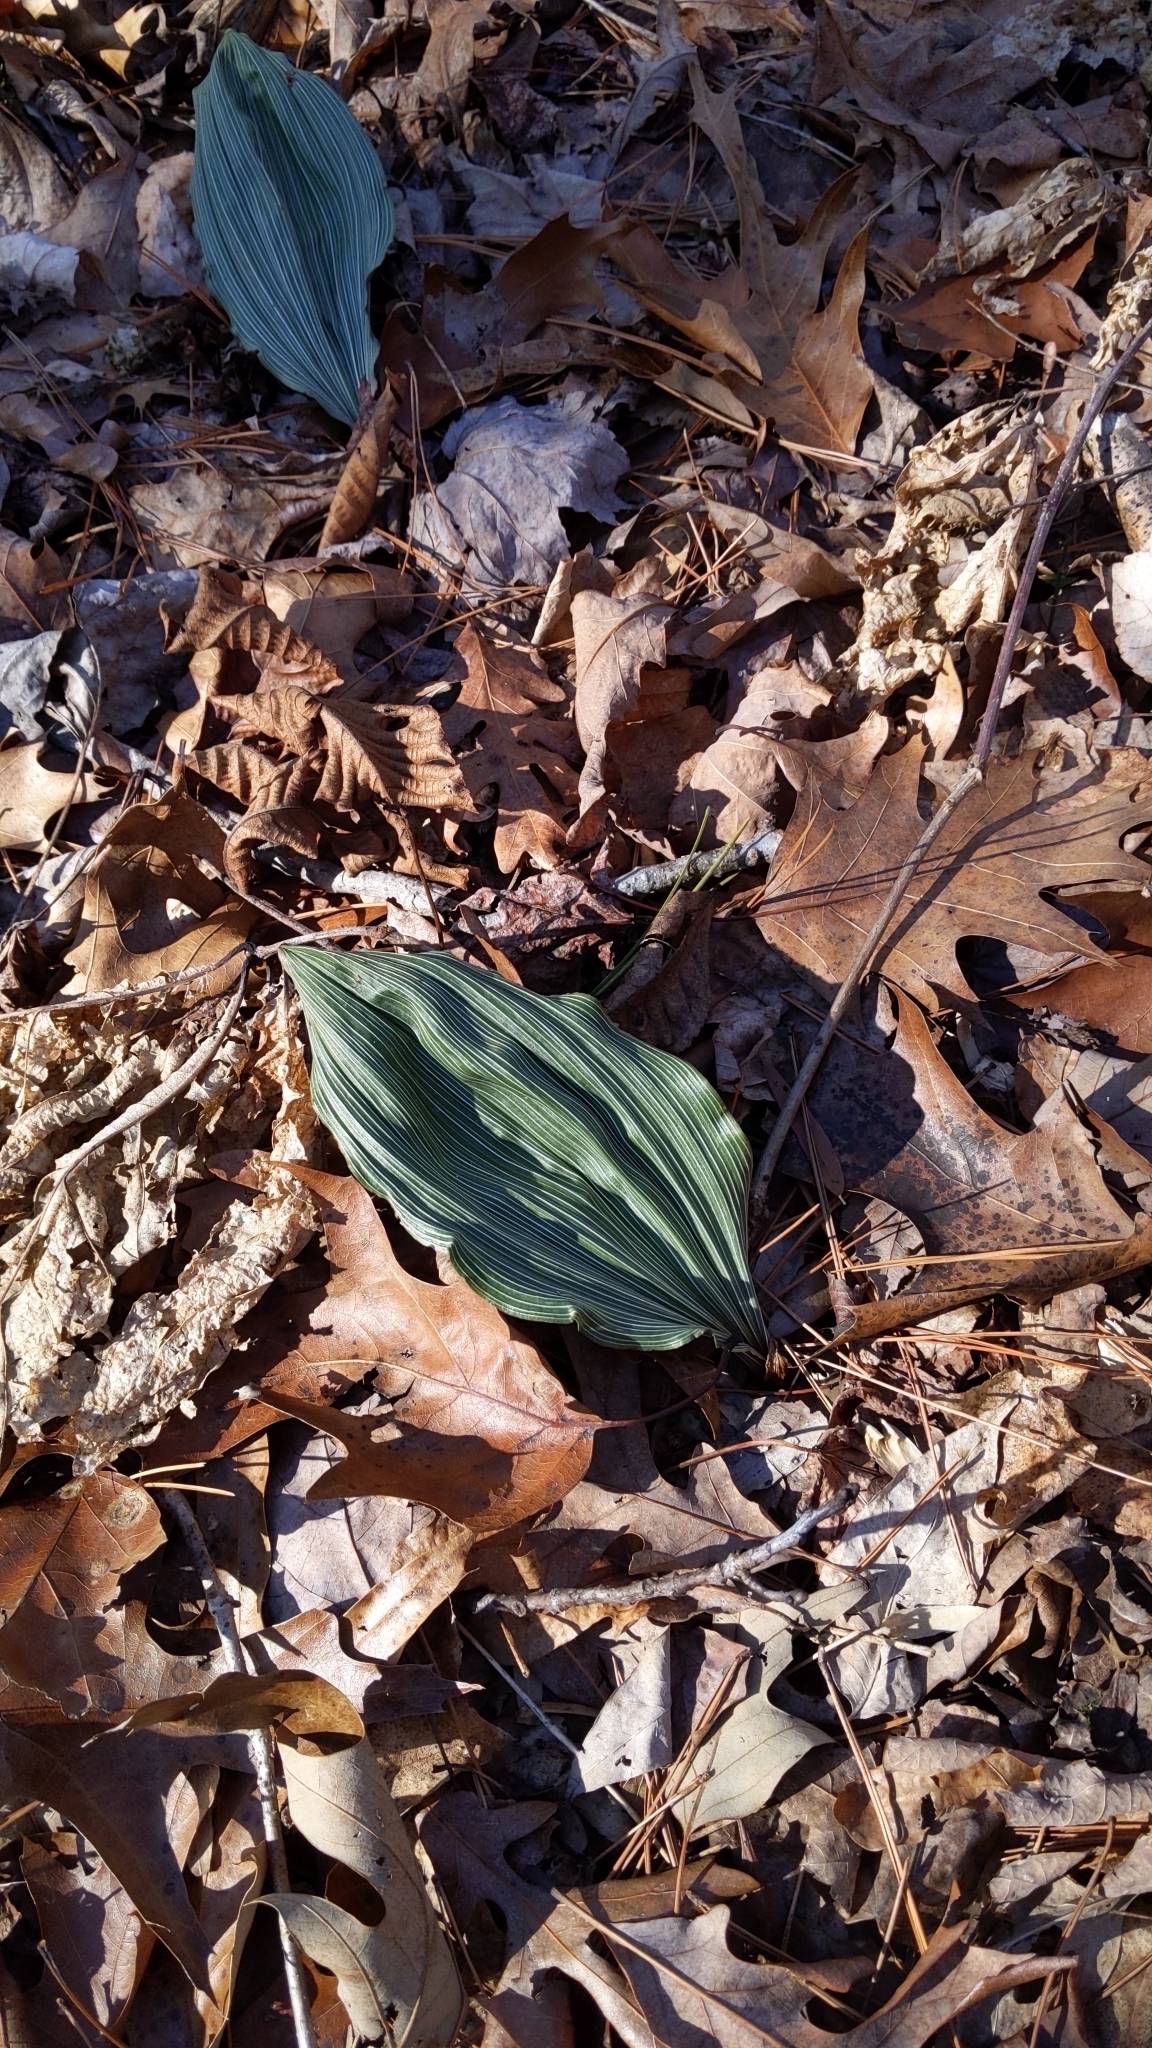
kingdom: Plantae
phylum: Tracheophyta
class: Liliopsida
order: Asparagales
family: Orchidaceae
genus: Aplectrum
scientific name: Aplectrum hyemale
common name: Adam-and-eve
